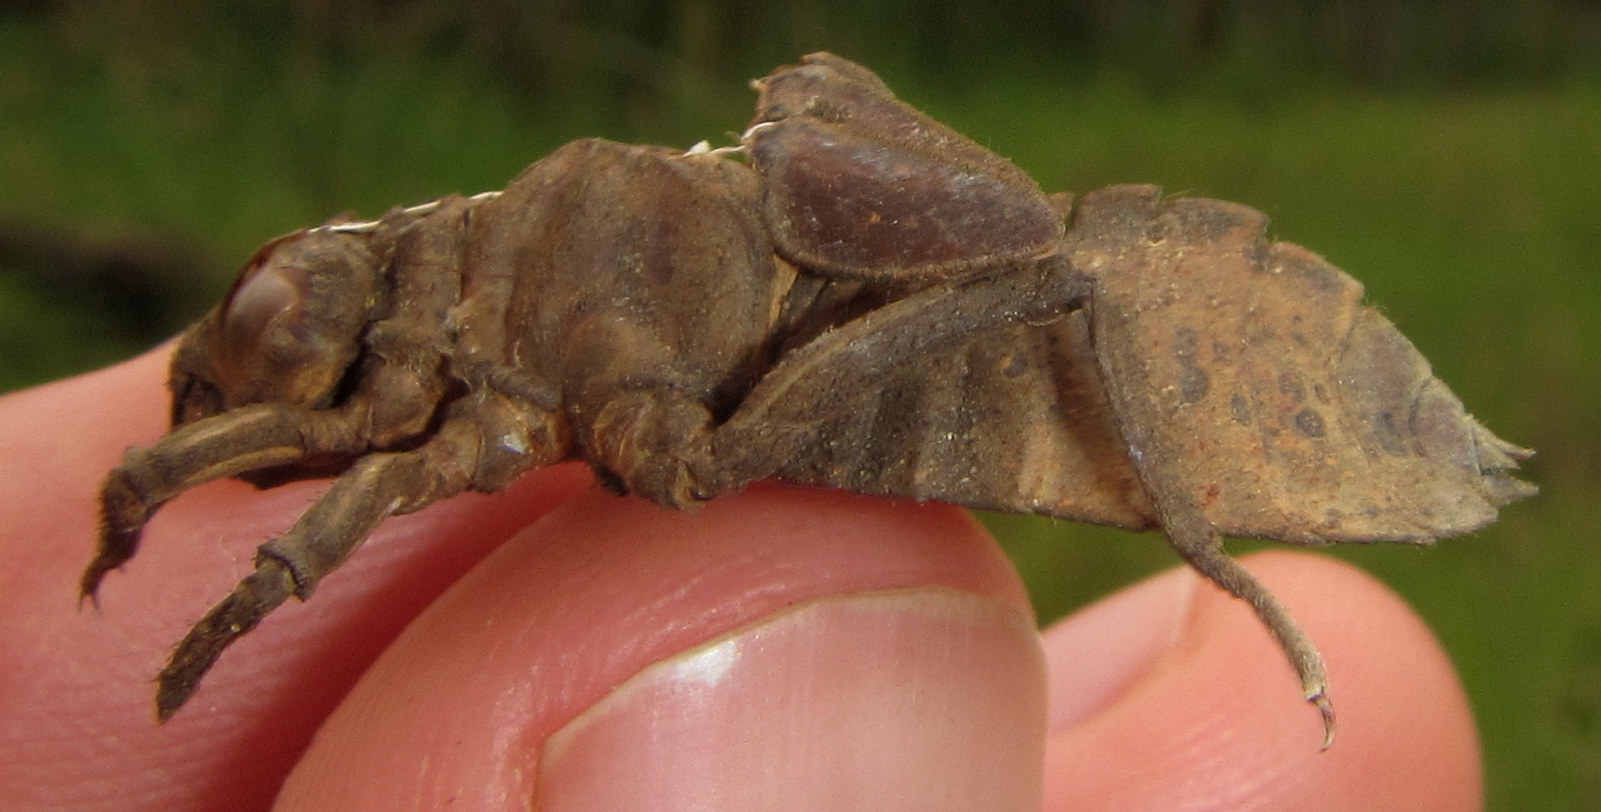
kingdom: Animalia
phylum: Arthropoda
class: Insecta
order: Odonata
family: Gomphidae
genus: Ictinogomphus
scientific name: Ictinogomphus ferox
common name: Common tiger
